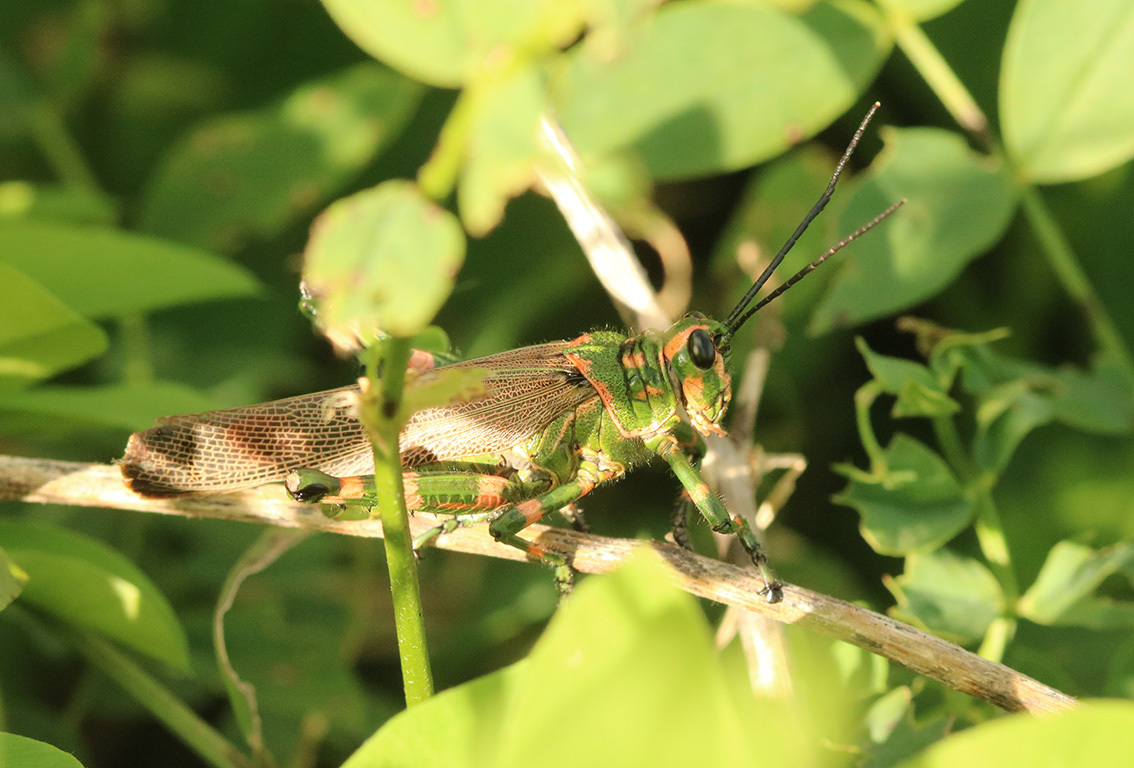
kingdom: Animalia
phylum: Arthropoda
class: Insecta
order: Orthoptera
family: Romaleidae
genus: Chromacris
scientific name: Chromacris speciosa
